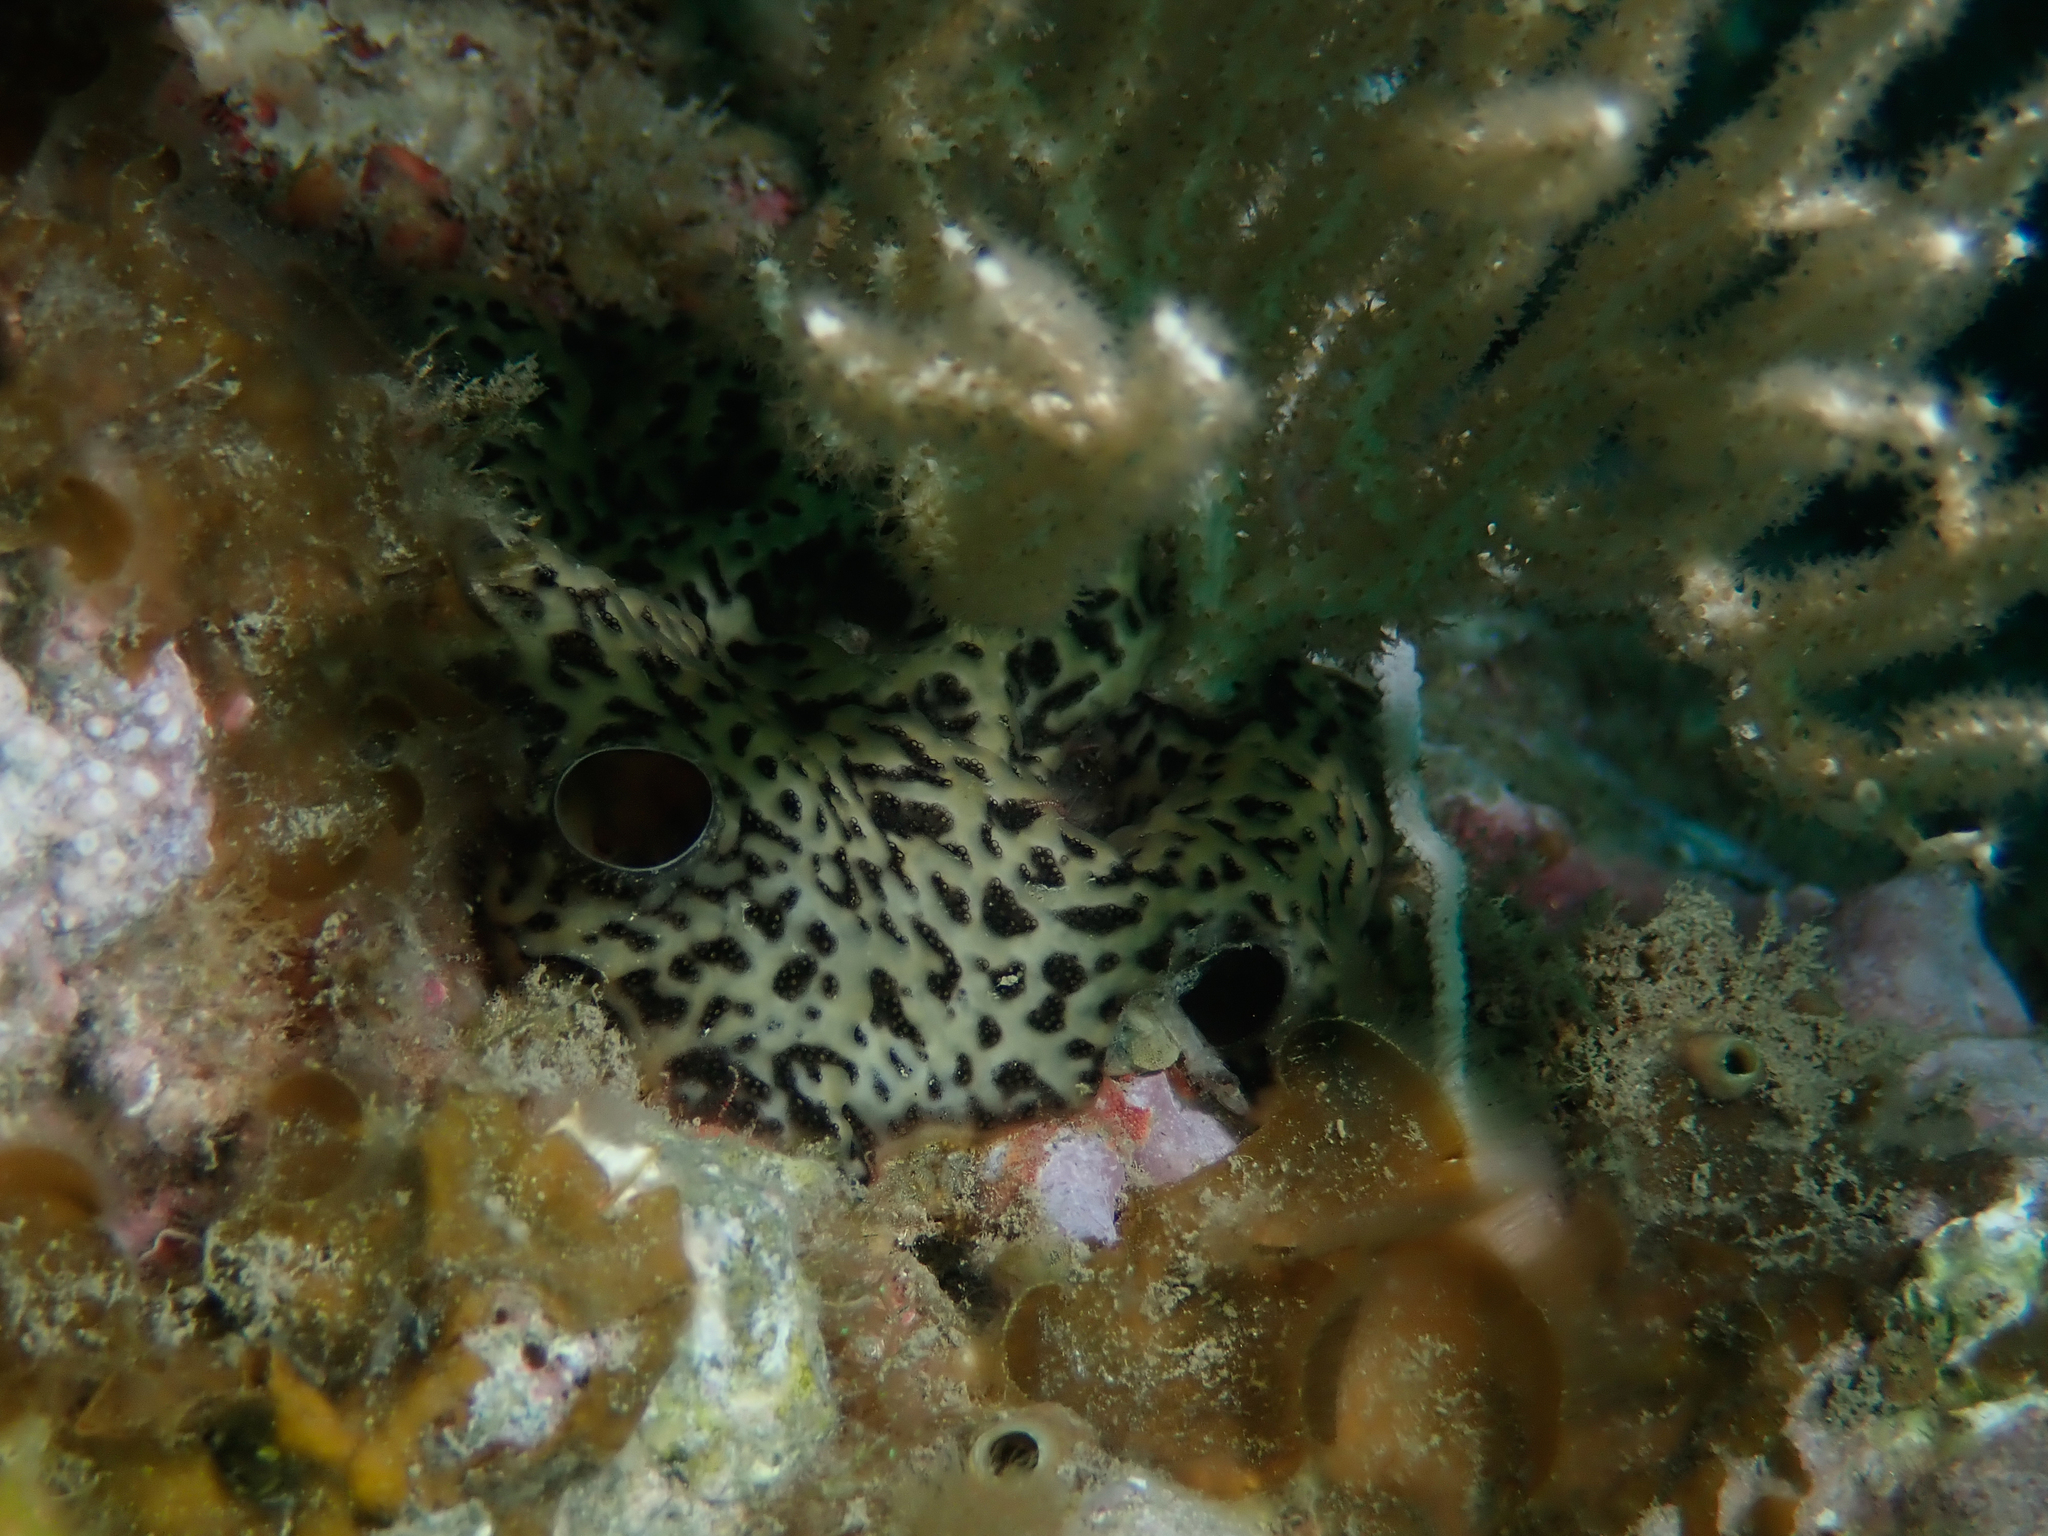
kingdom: Animalia
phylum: Chordata
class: Ascidiacea
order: Aplousobranchia
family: Didemnidae
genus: Didemnum
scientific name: Didemnum coriaceum
